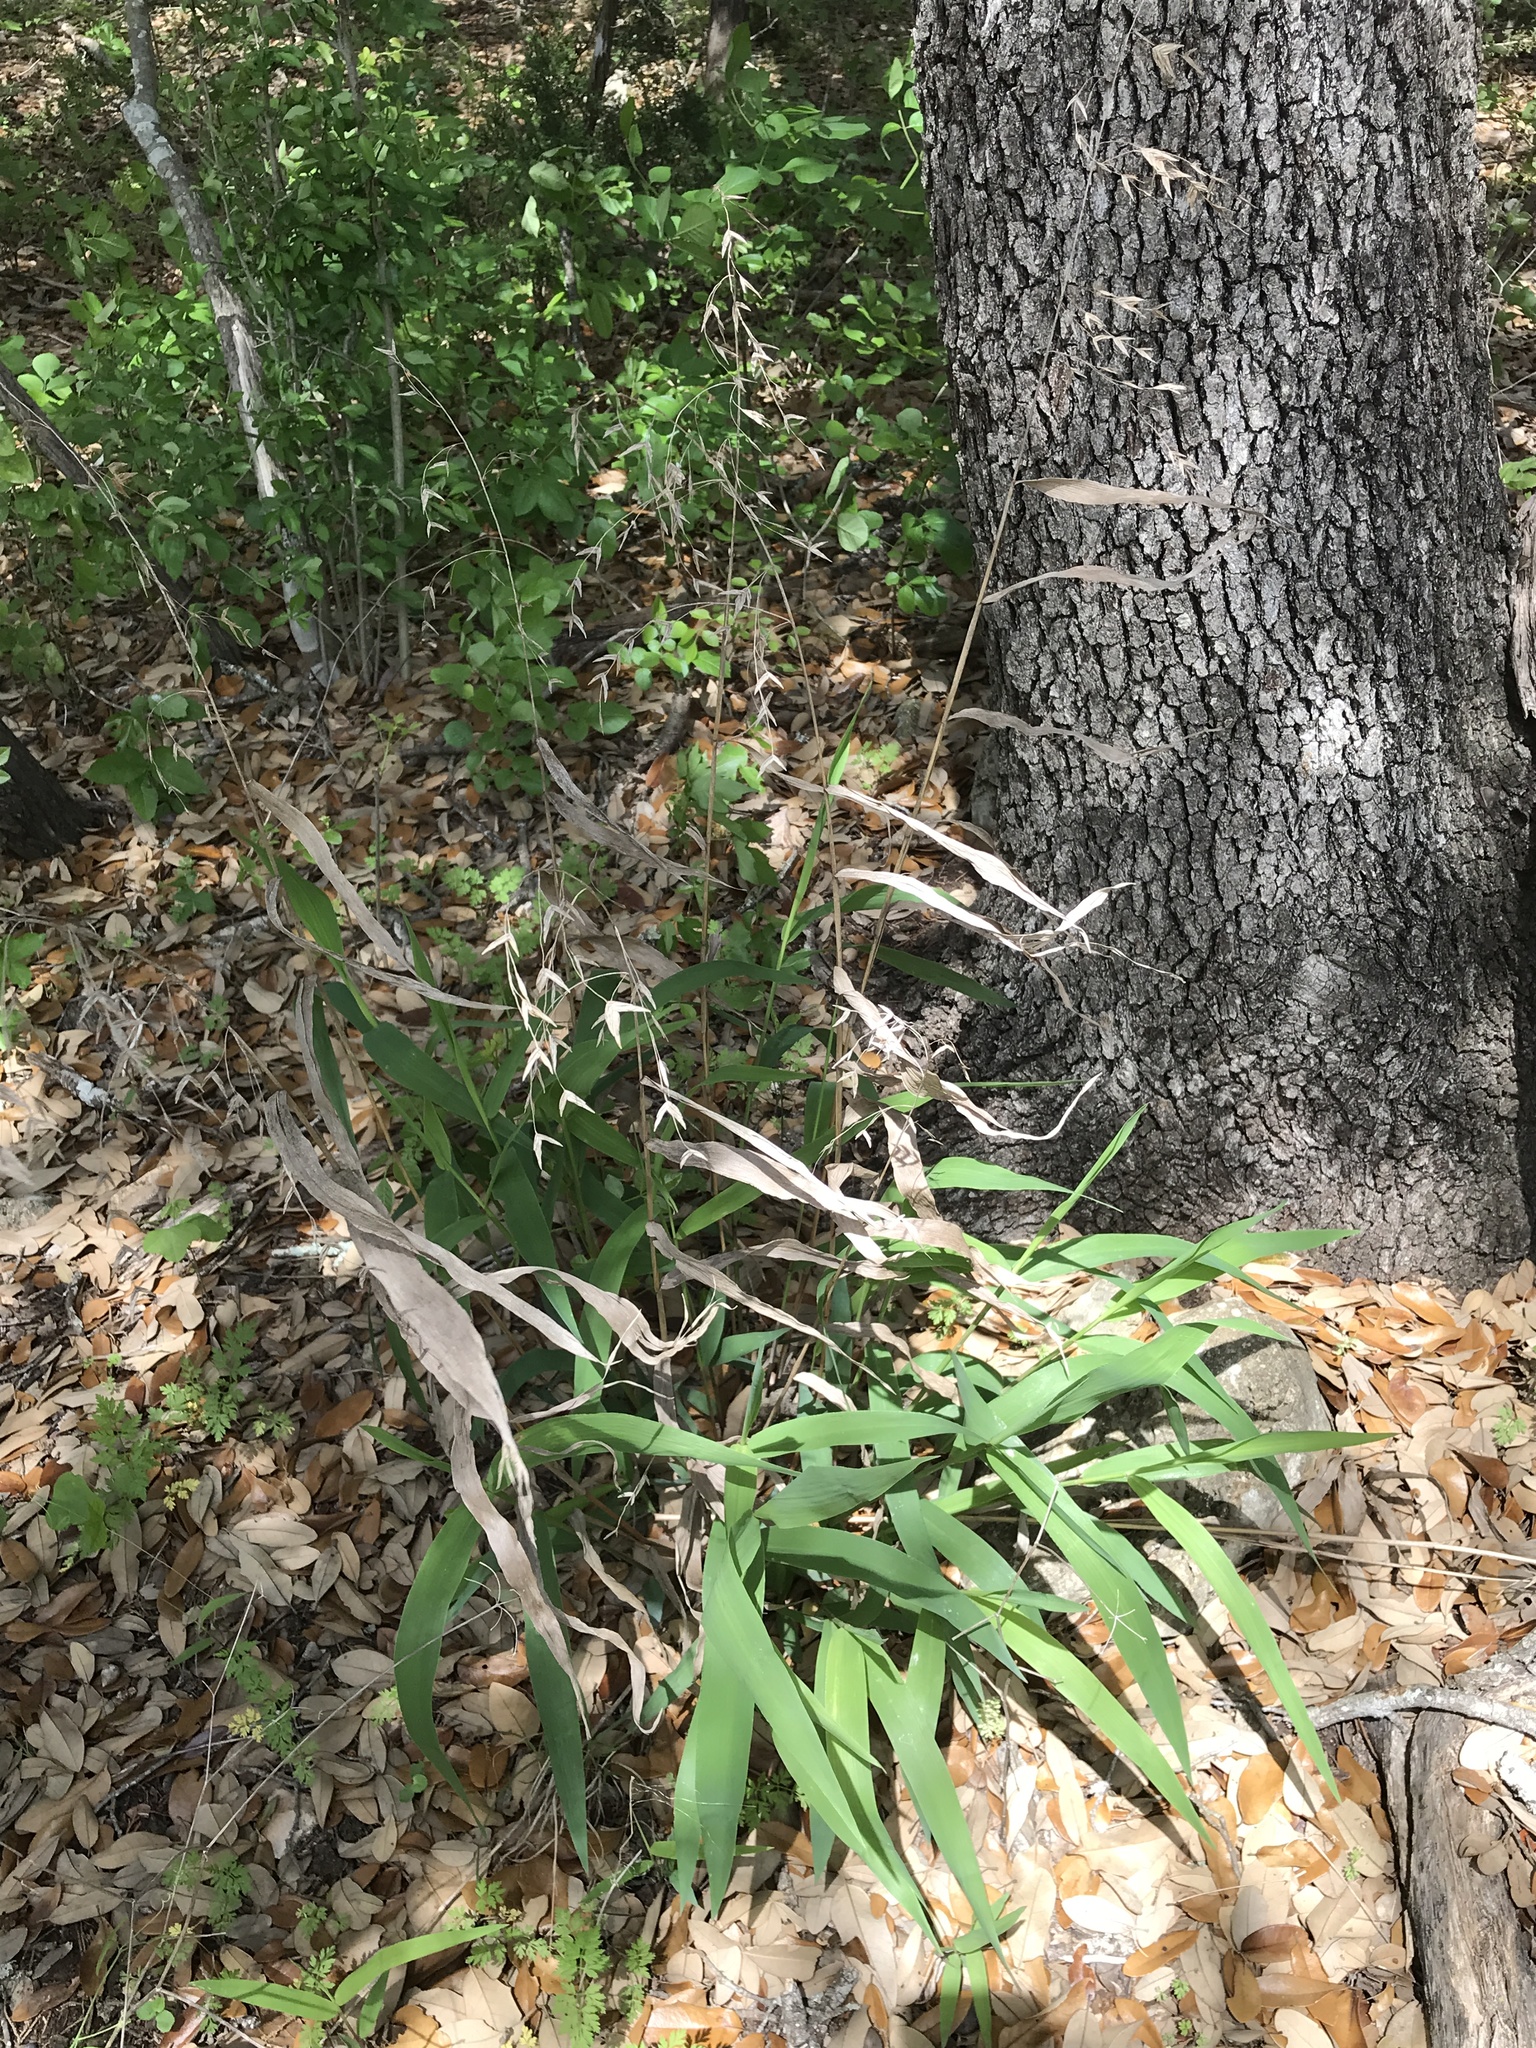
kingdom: Plantae
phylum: Tracheophyta
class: Liliopsida
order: Poales
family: Poaceae
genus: Chasmanthium
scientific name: Chasmanthium latifolium
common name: Broad-leaved chasmanthium
